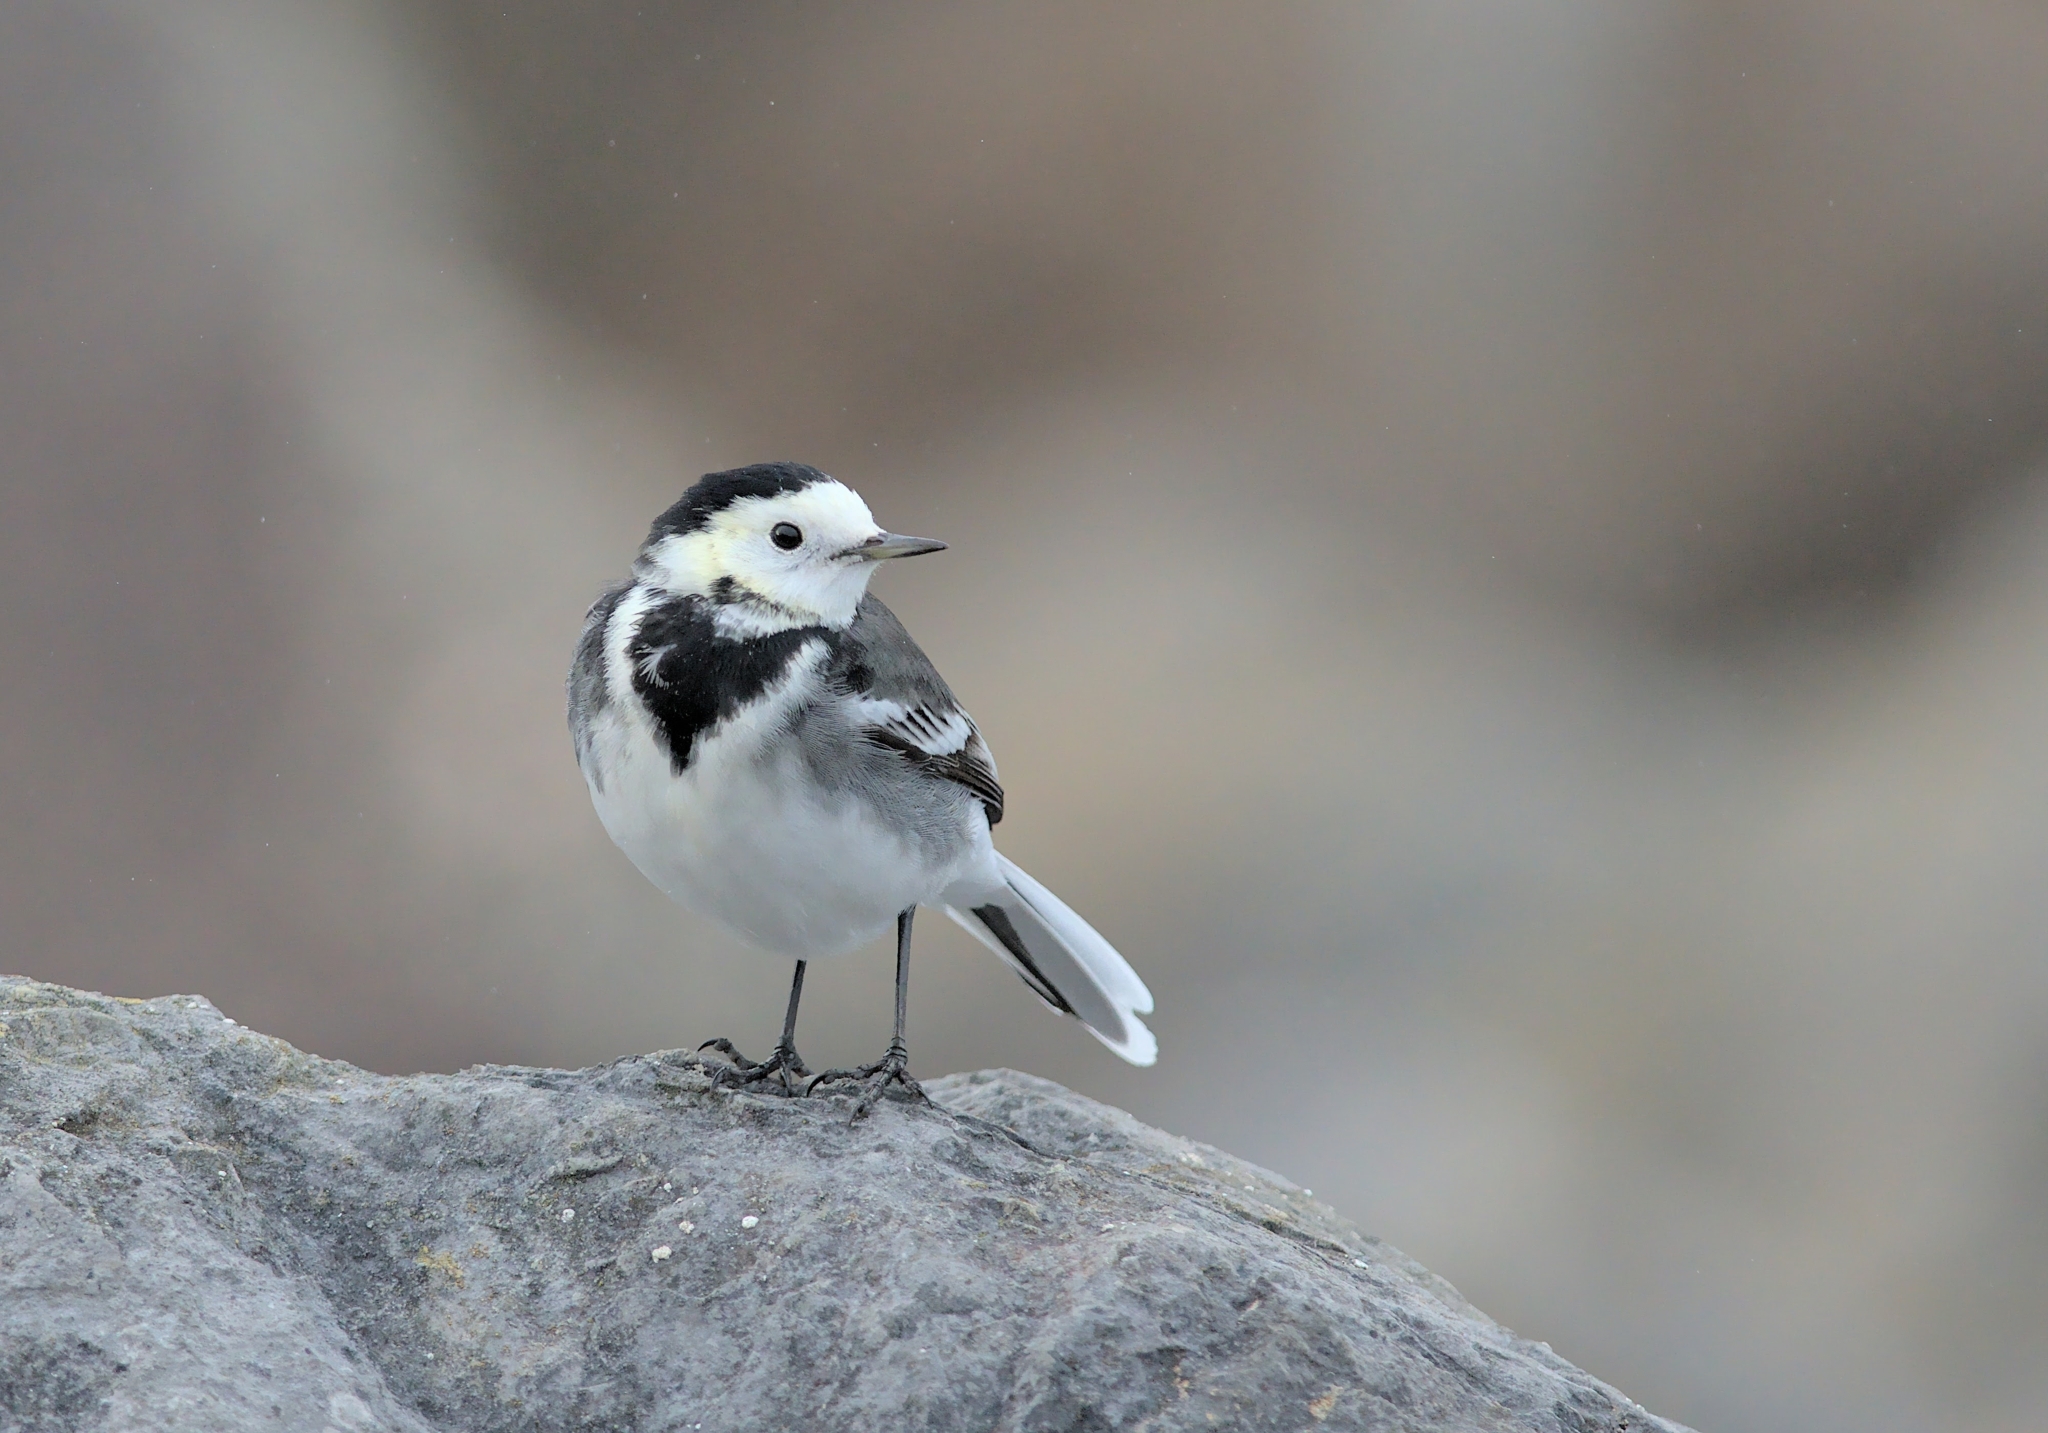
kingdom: Animalia
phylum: Chordata
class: Aves
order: Passeriformes
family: Motacillidae
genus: Motacilla
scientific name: Motacilla alba
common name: White wagtail
